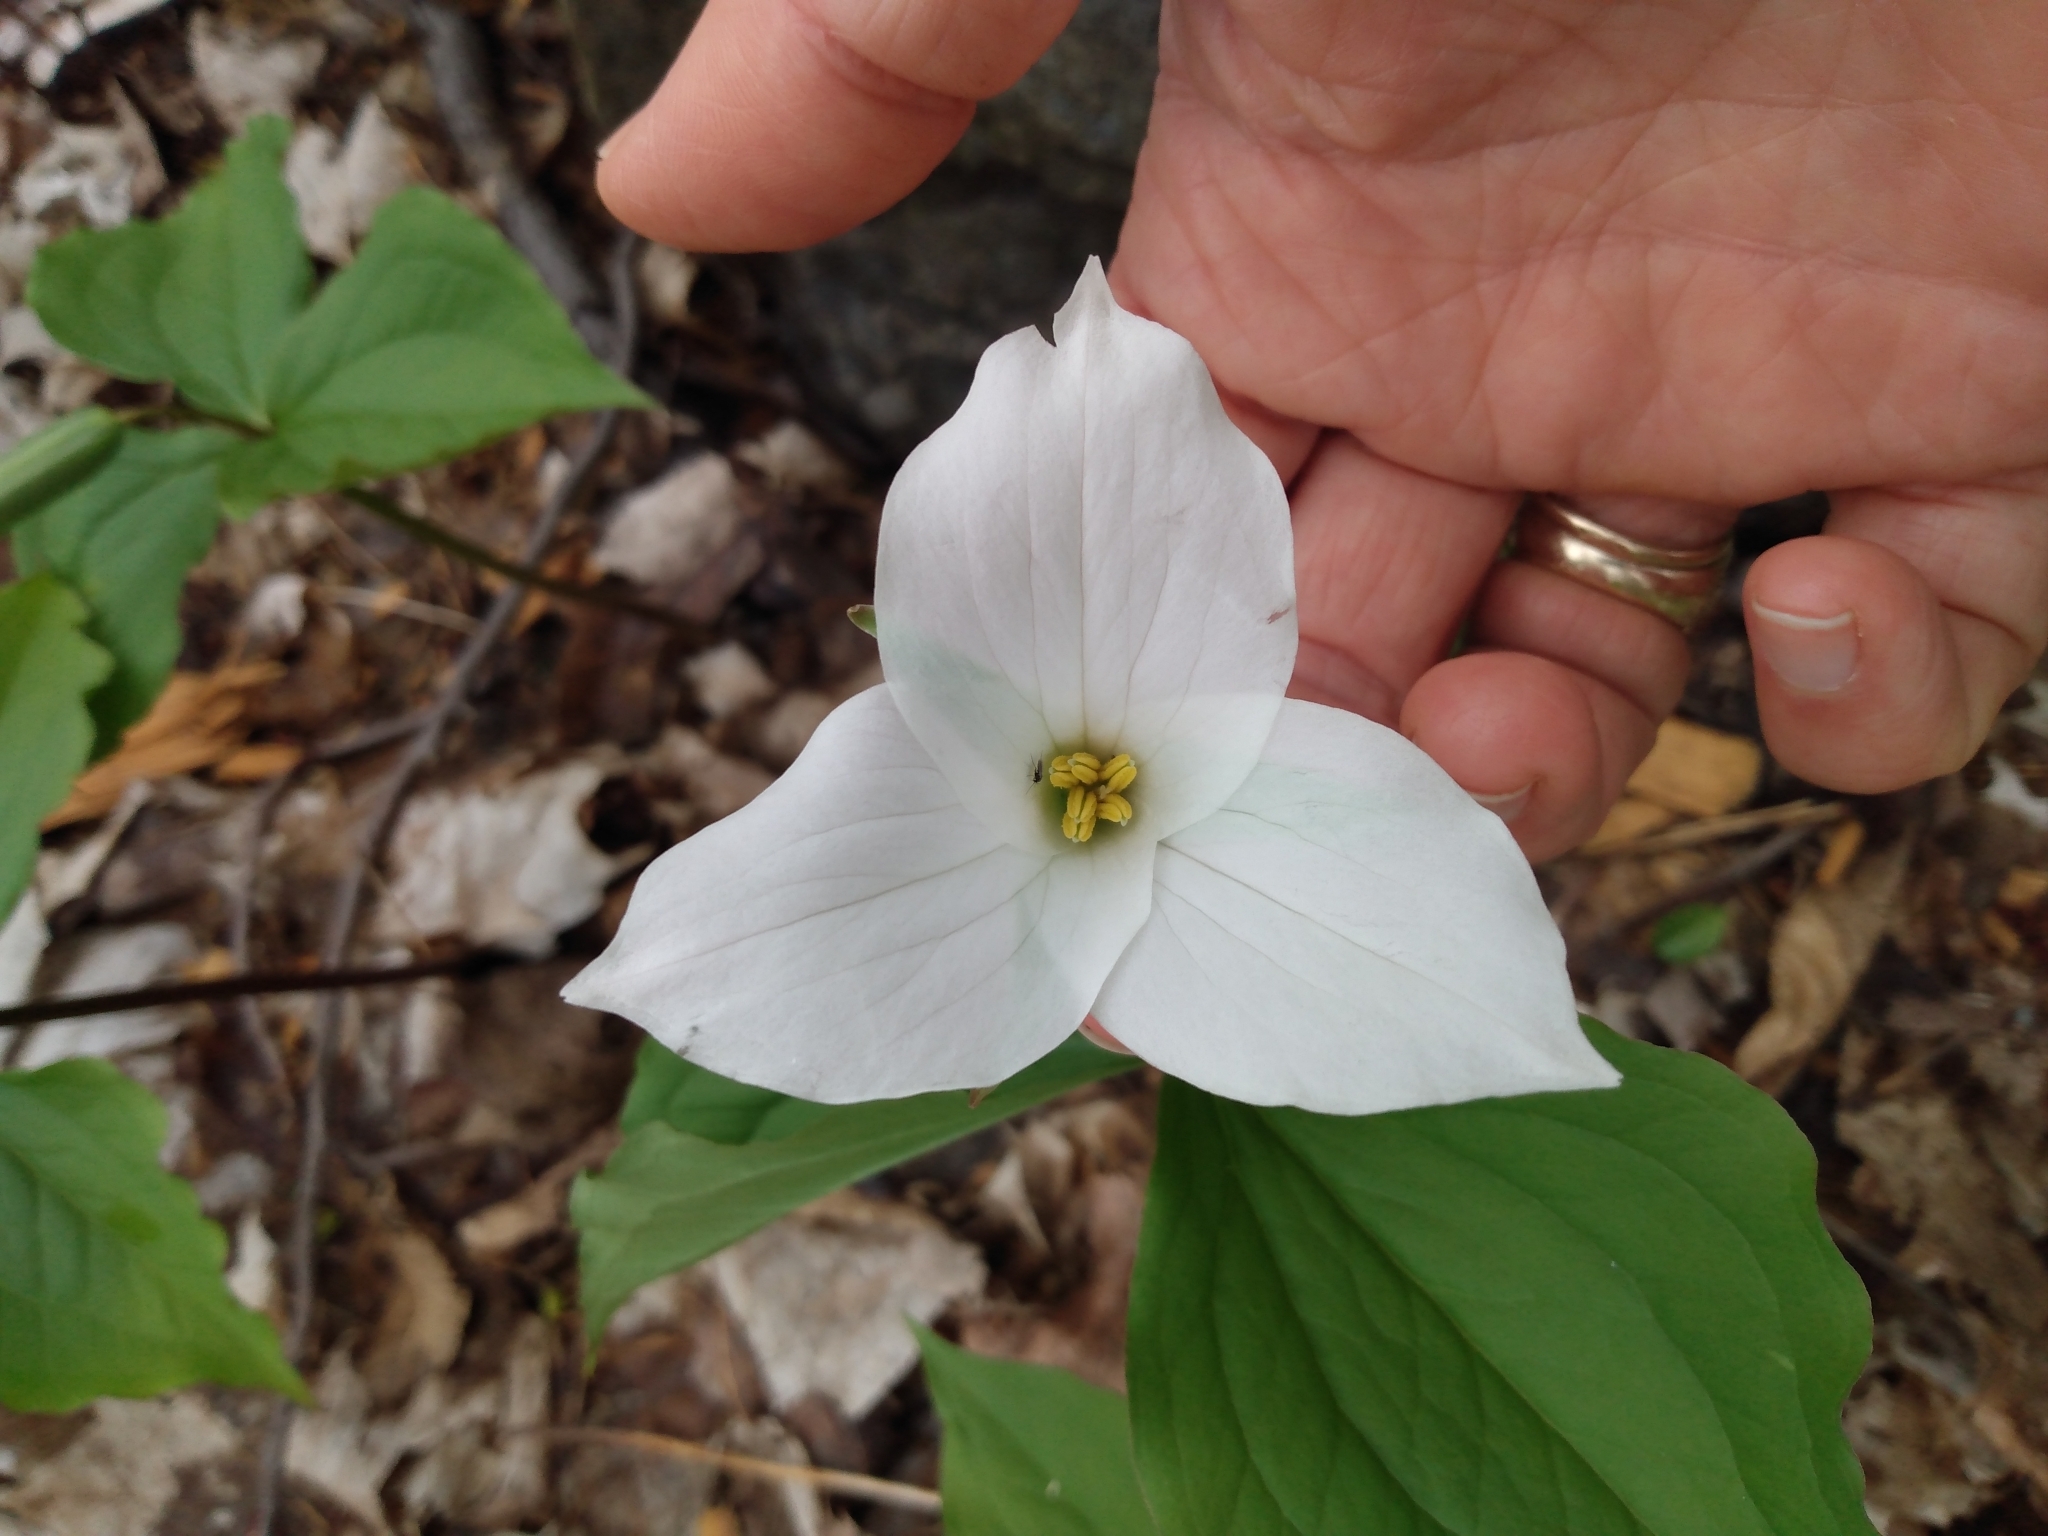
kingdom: Plantae
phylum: Tracheophyta
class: Liliopsida
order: Liliales
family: Melanthiaceae
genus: Trillium
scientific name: Trillium grandiflorum
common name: Great white trillium
